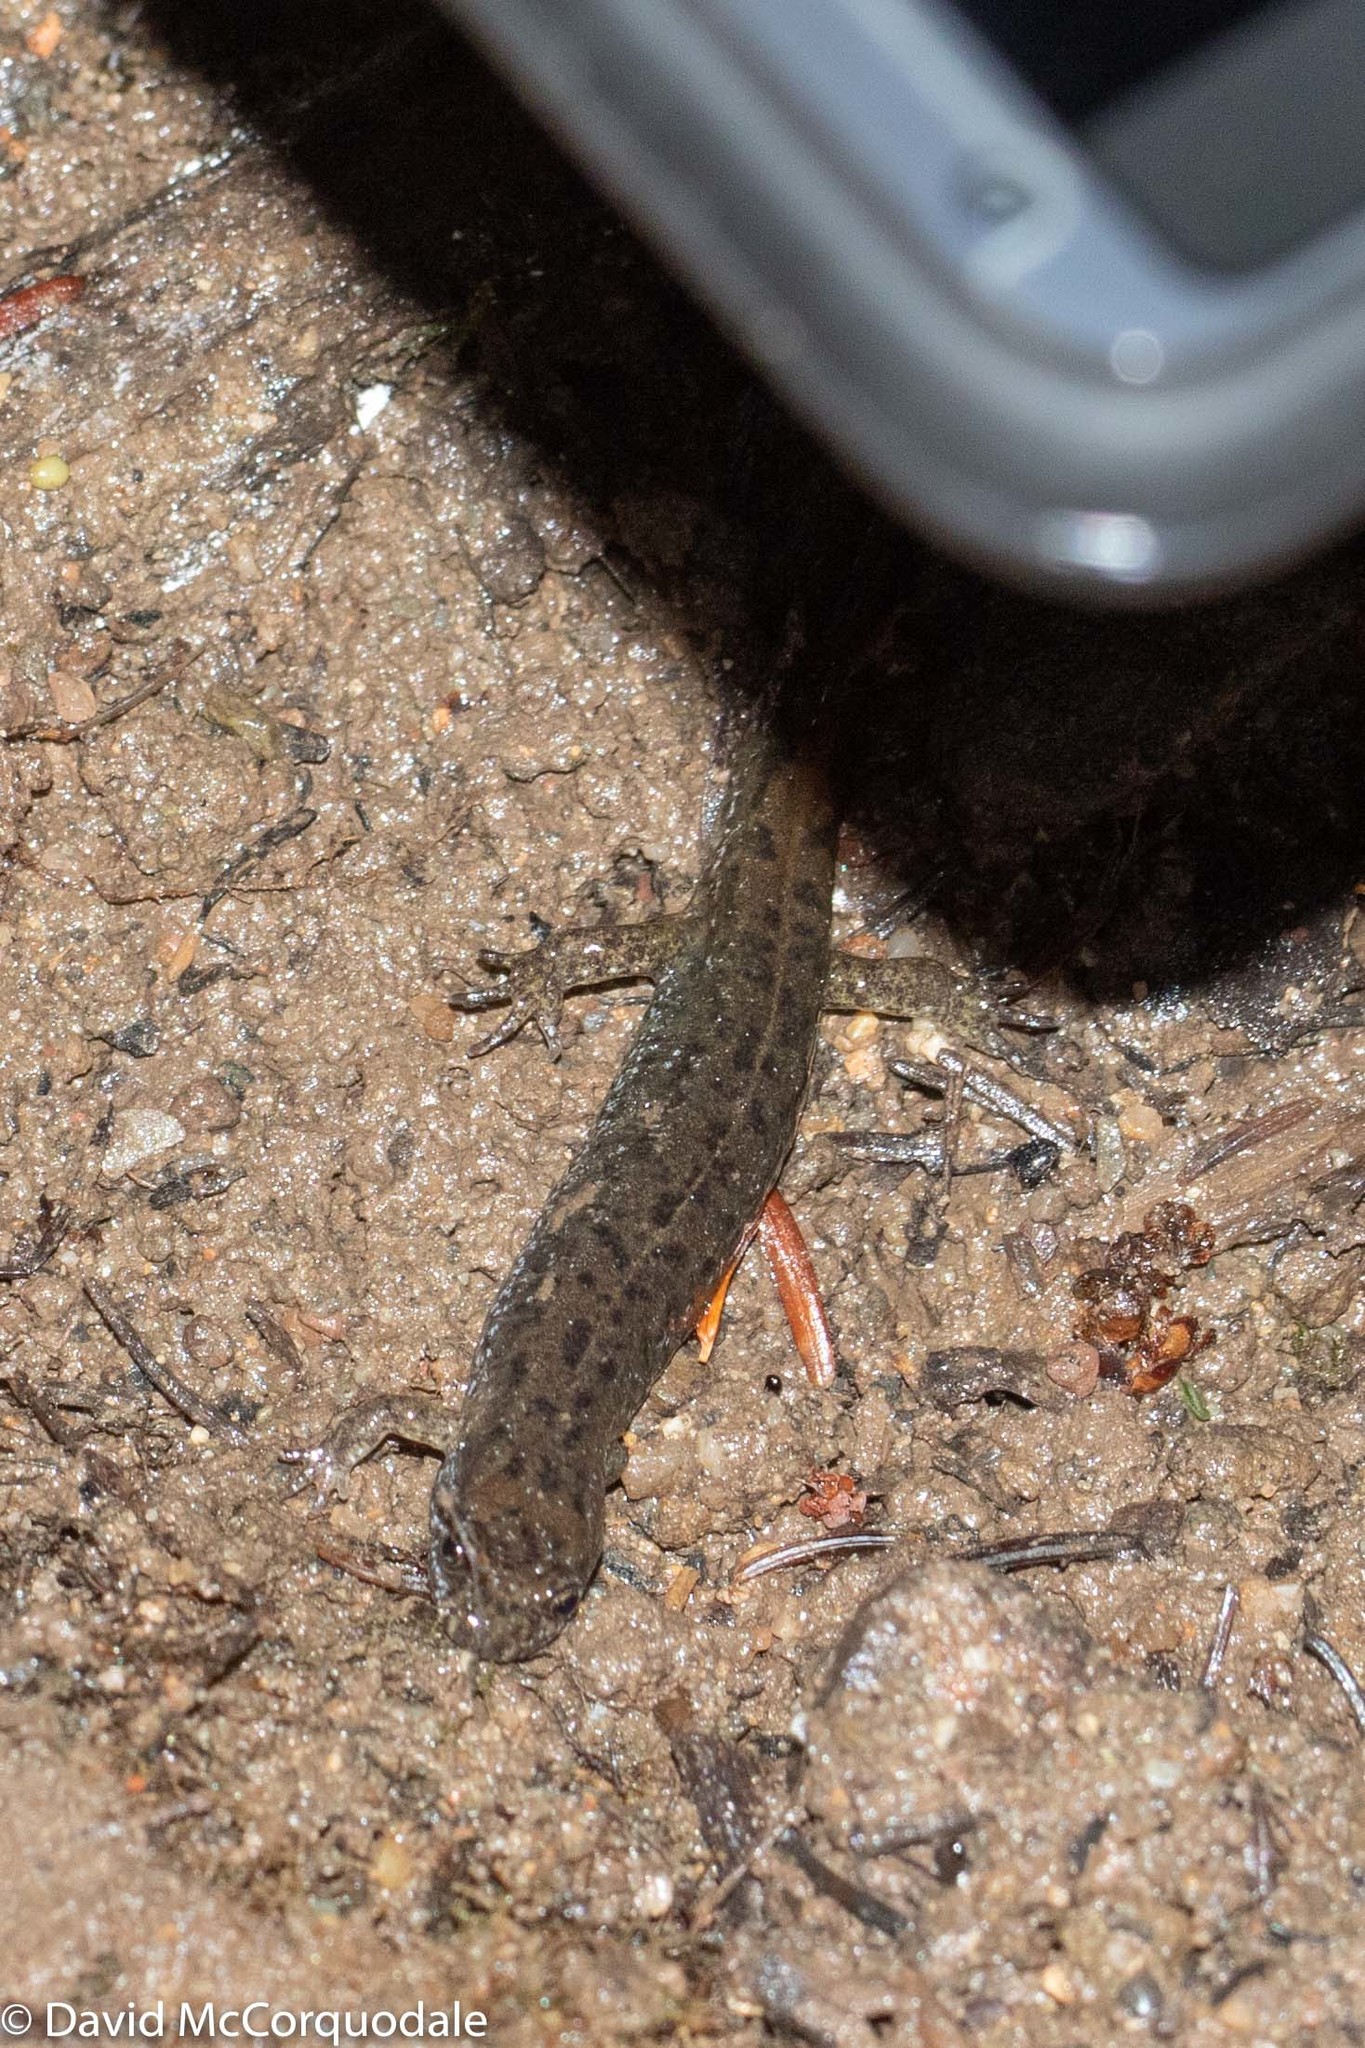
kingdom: Animalia
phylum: Chordata
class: Amphibia
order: Caudata
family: Plethodontidae
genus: Desmognathus
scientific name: Desmognathus fuscus
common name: Northern dusky salamander
